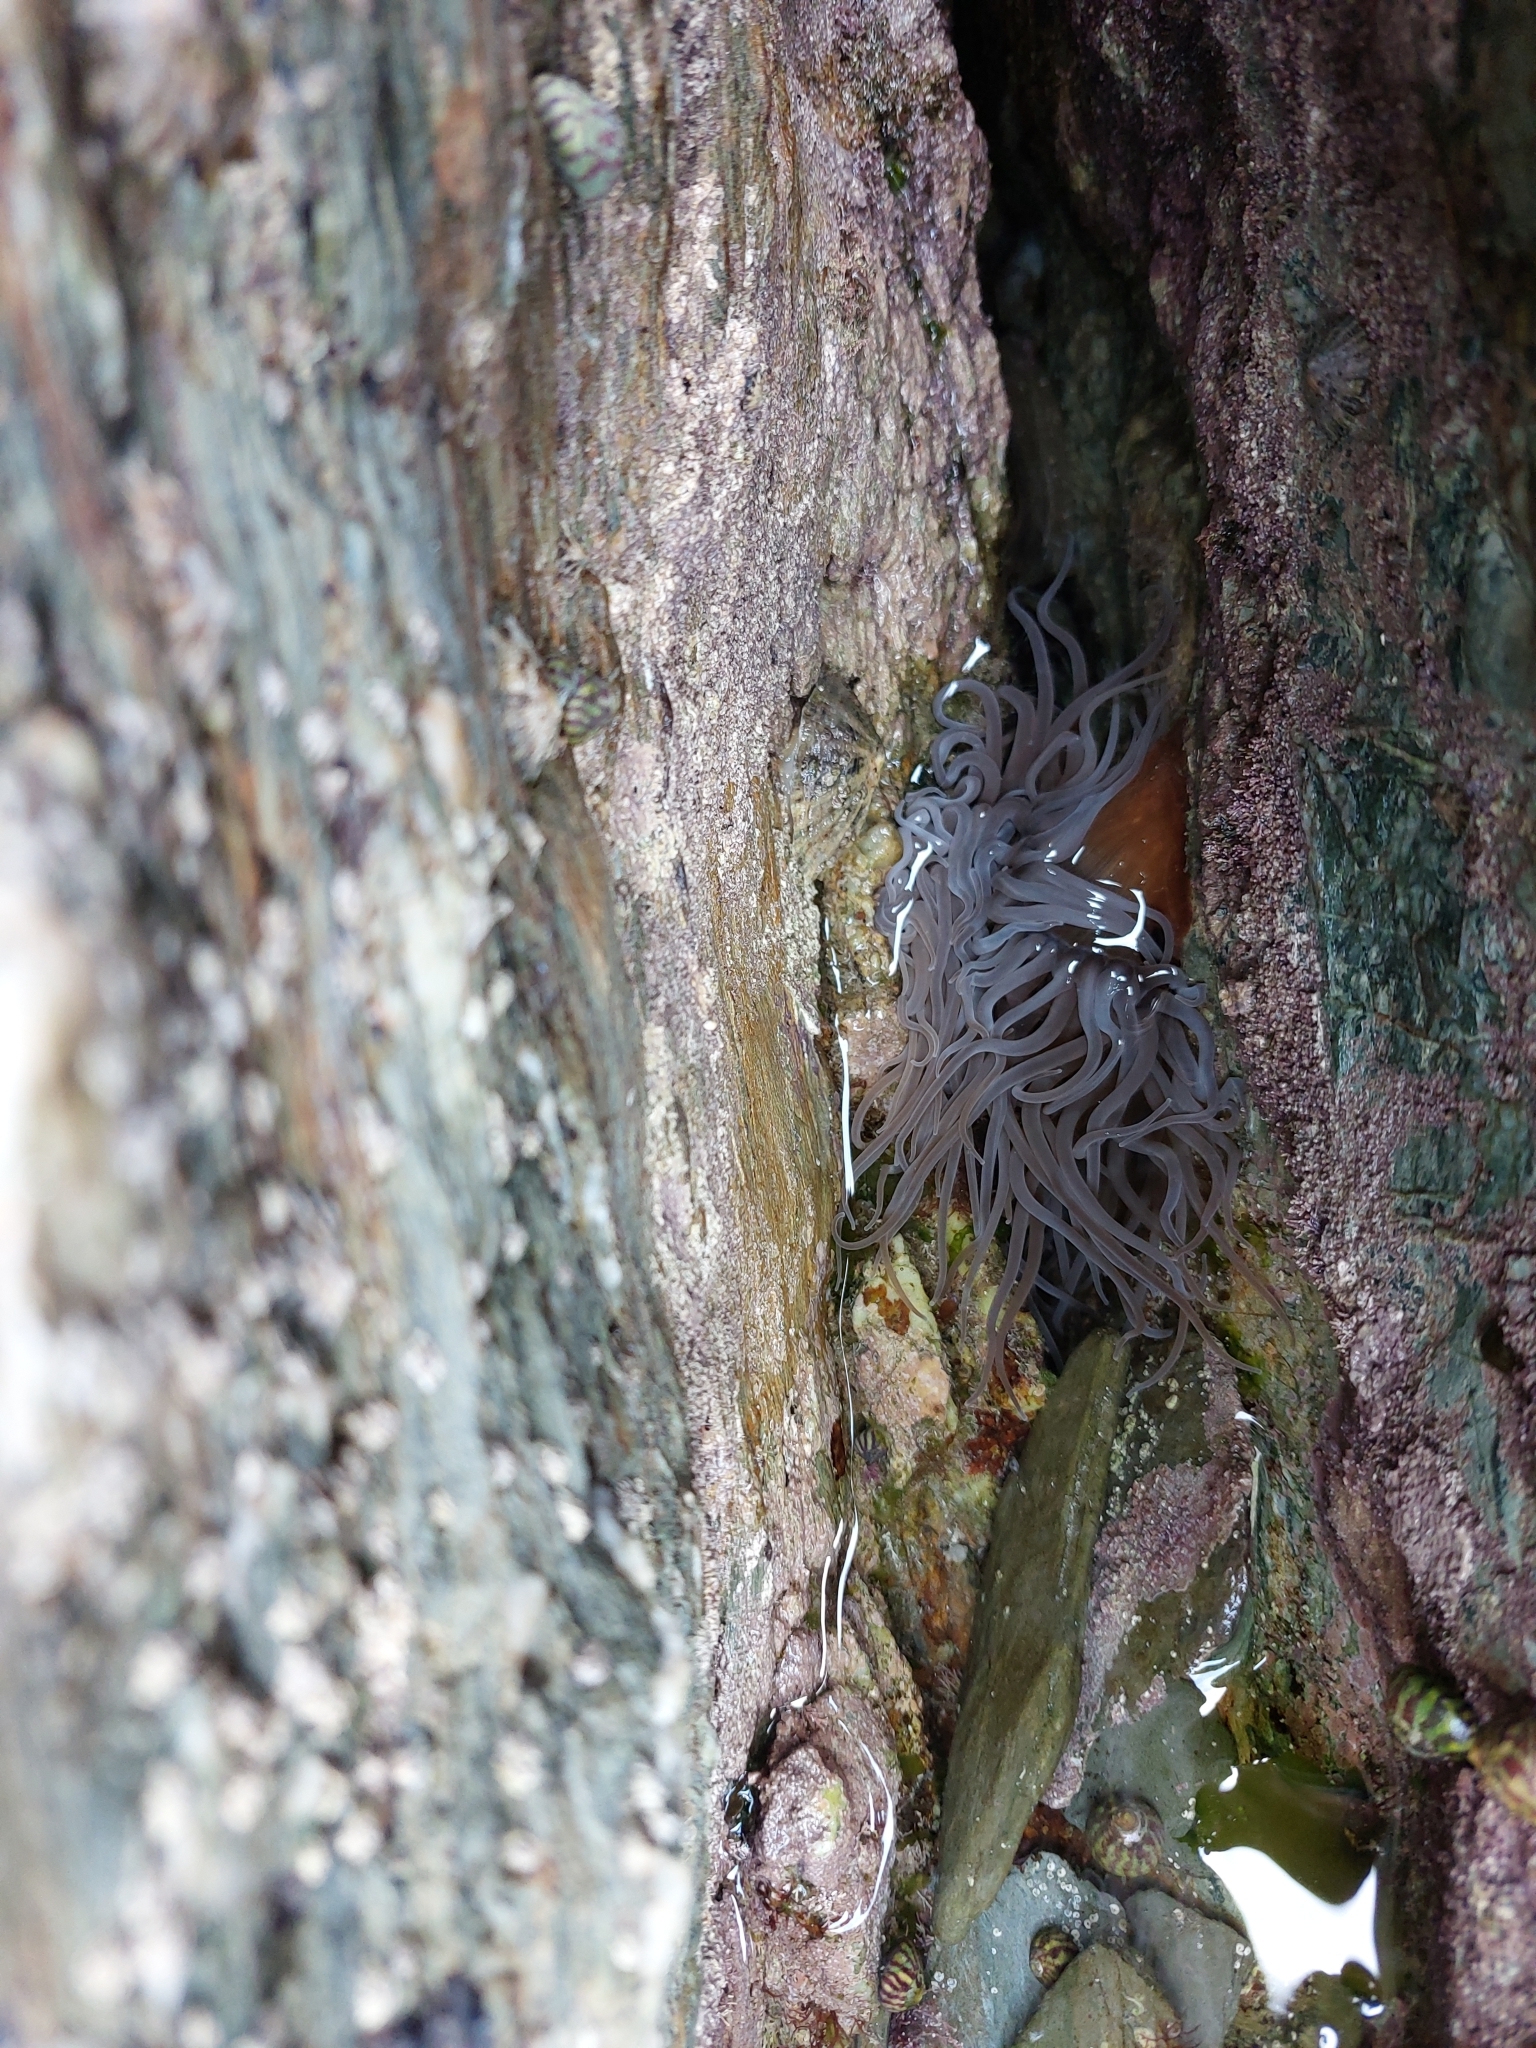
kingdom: Animalia
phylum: Cnidaria
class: Anthozoa
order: Actiniaria
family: Actiniidae
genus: Anemonia
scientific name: Anemonia viridis
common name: Snakelocks anemone
